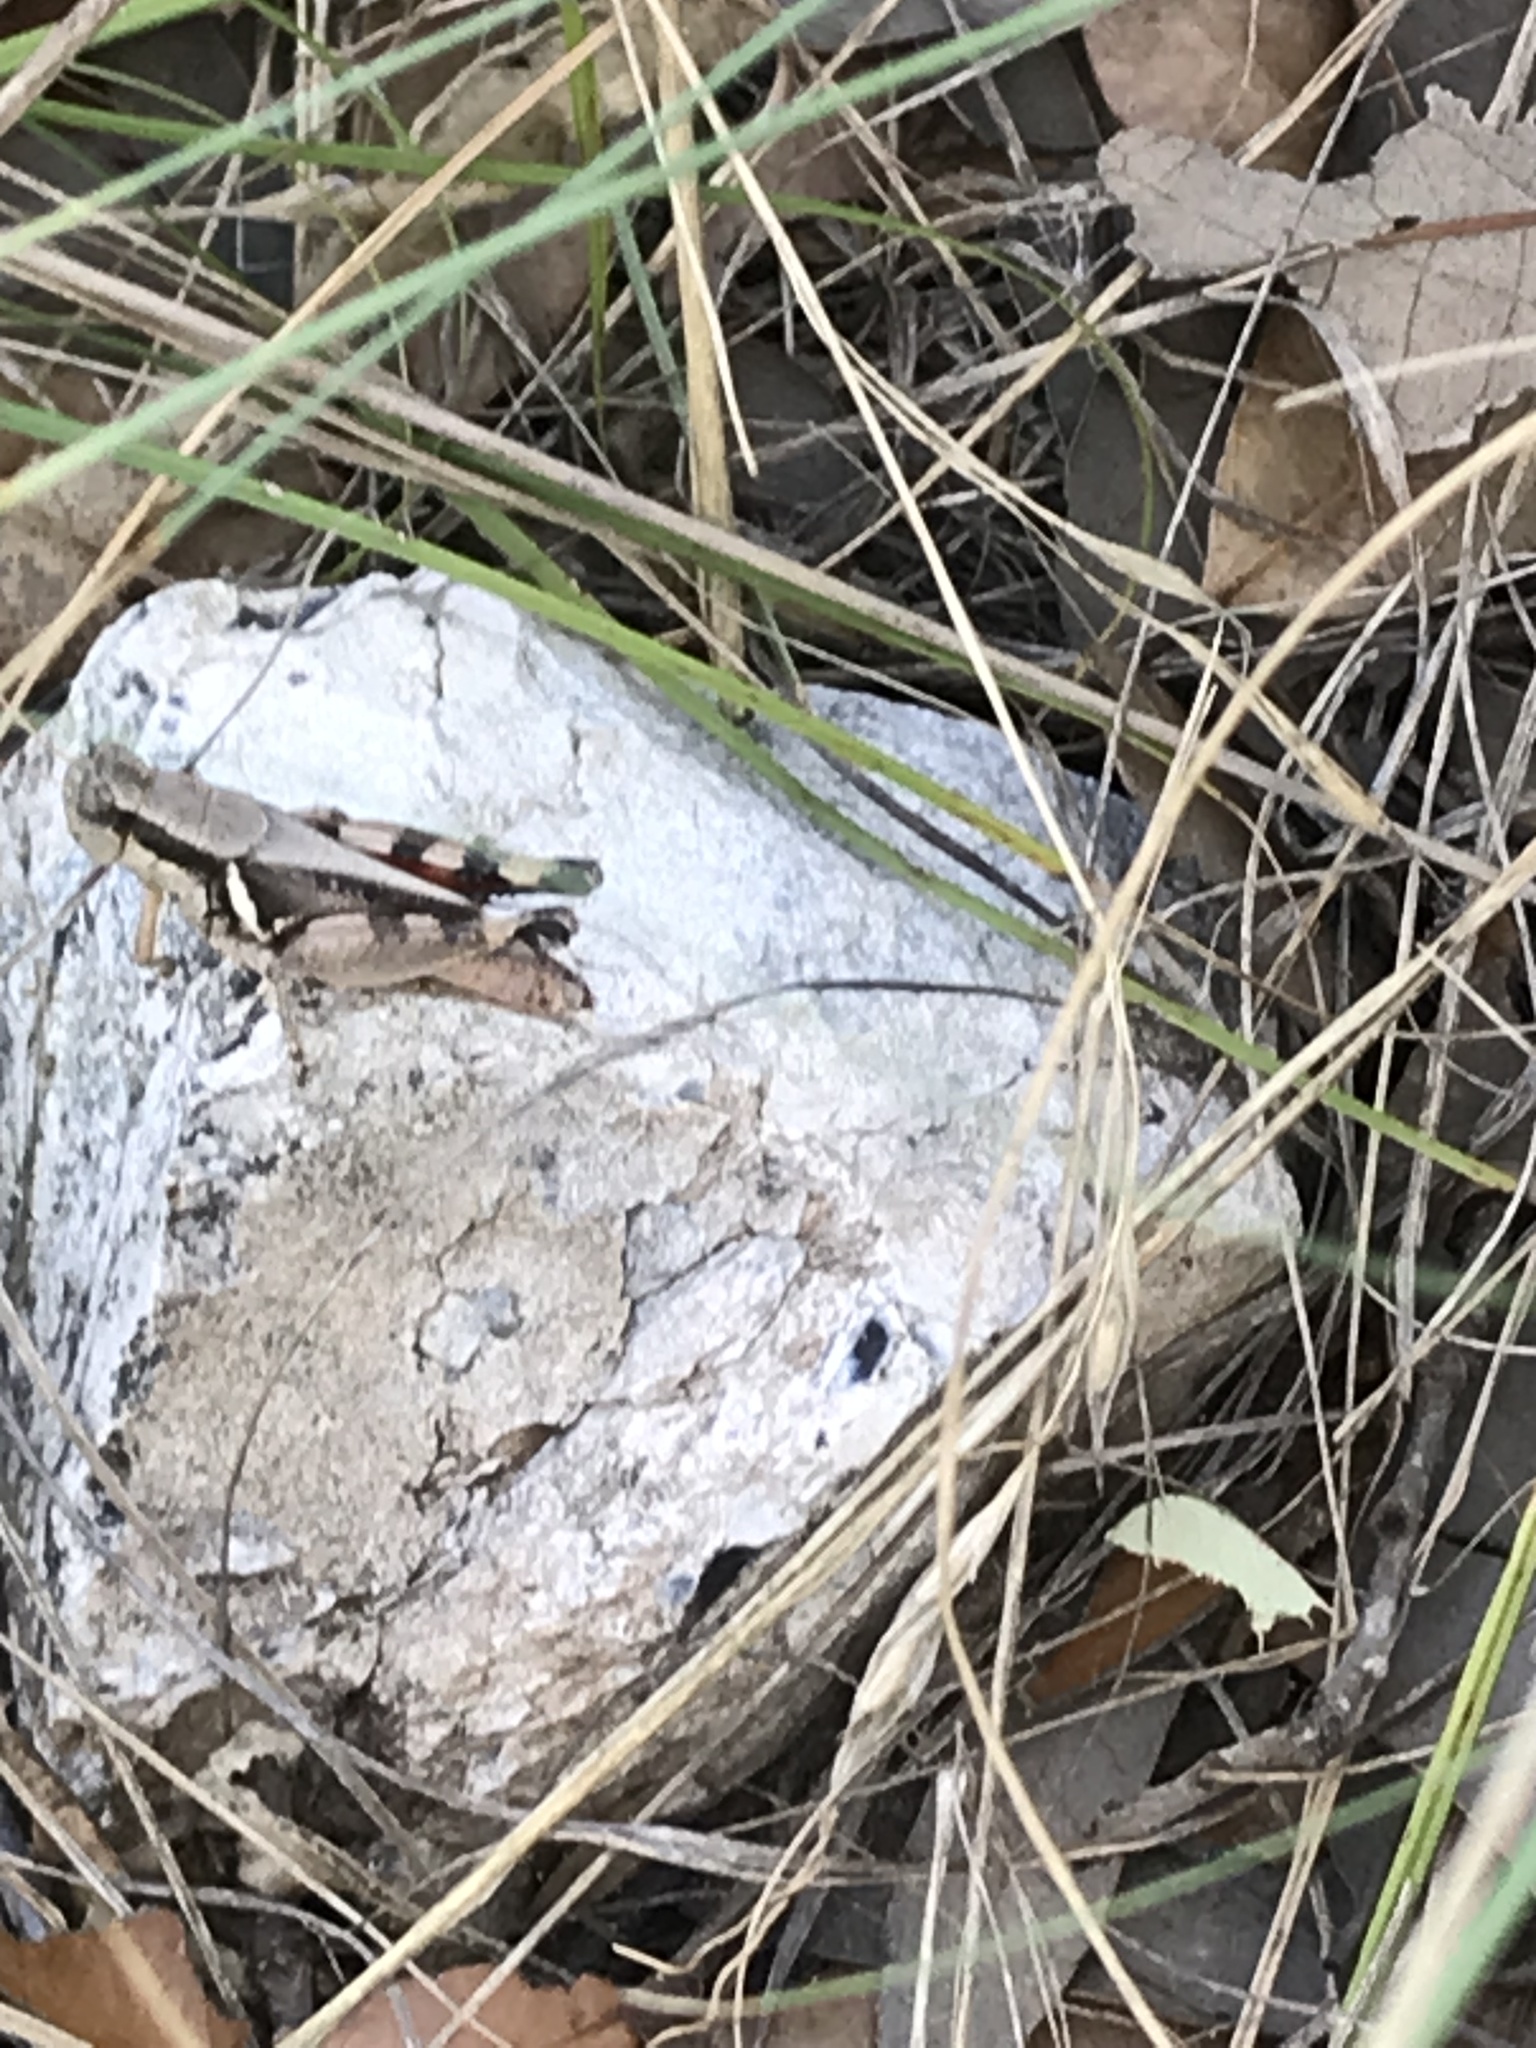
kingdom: Animalia
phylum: Arthropoda
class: Insecta
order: Orthoptera
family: Acrididae
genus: Melanoplus
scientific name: Melanoplus glaucipes
